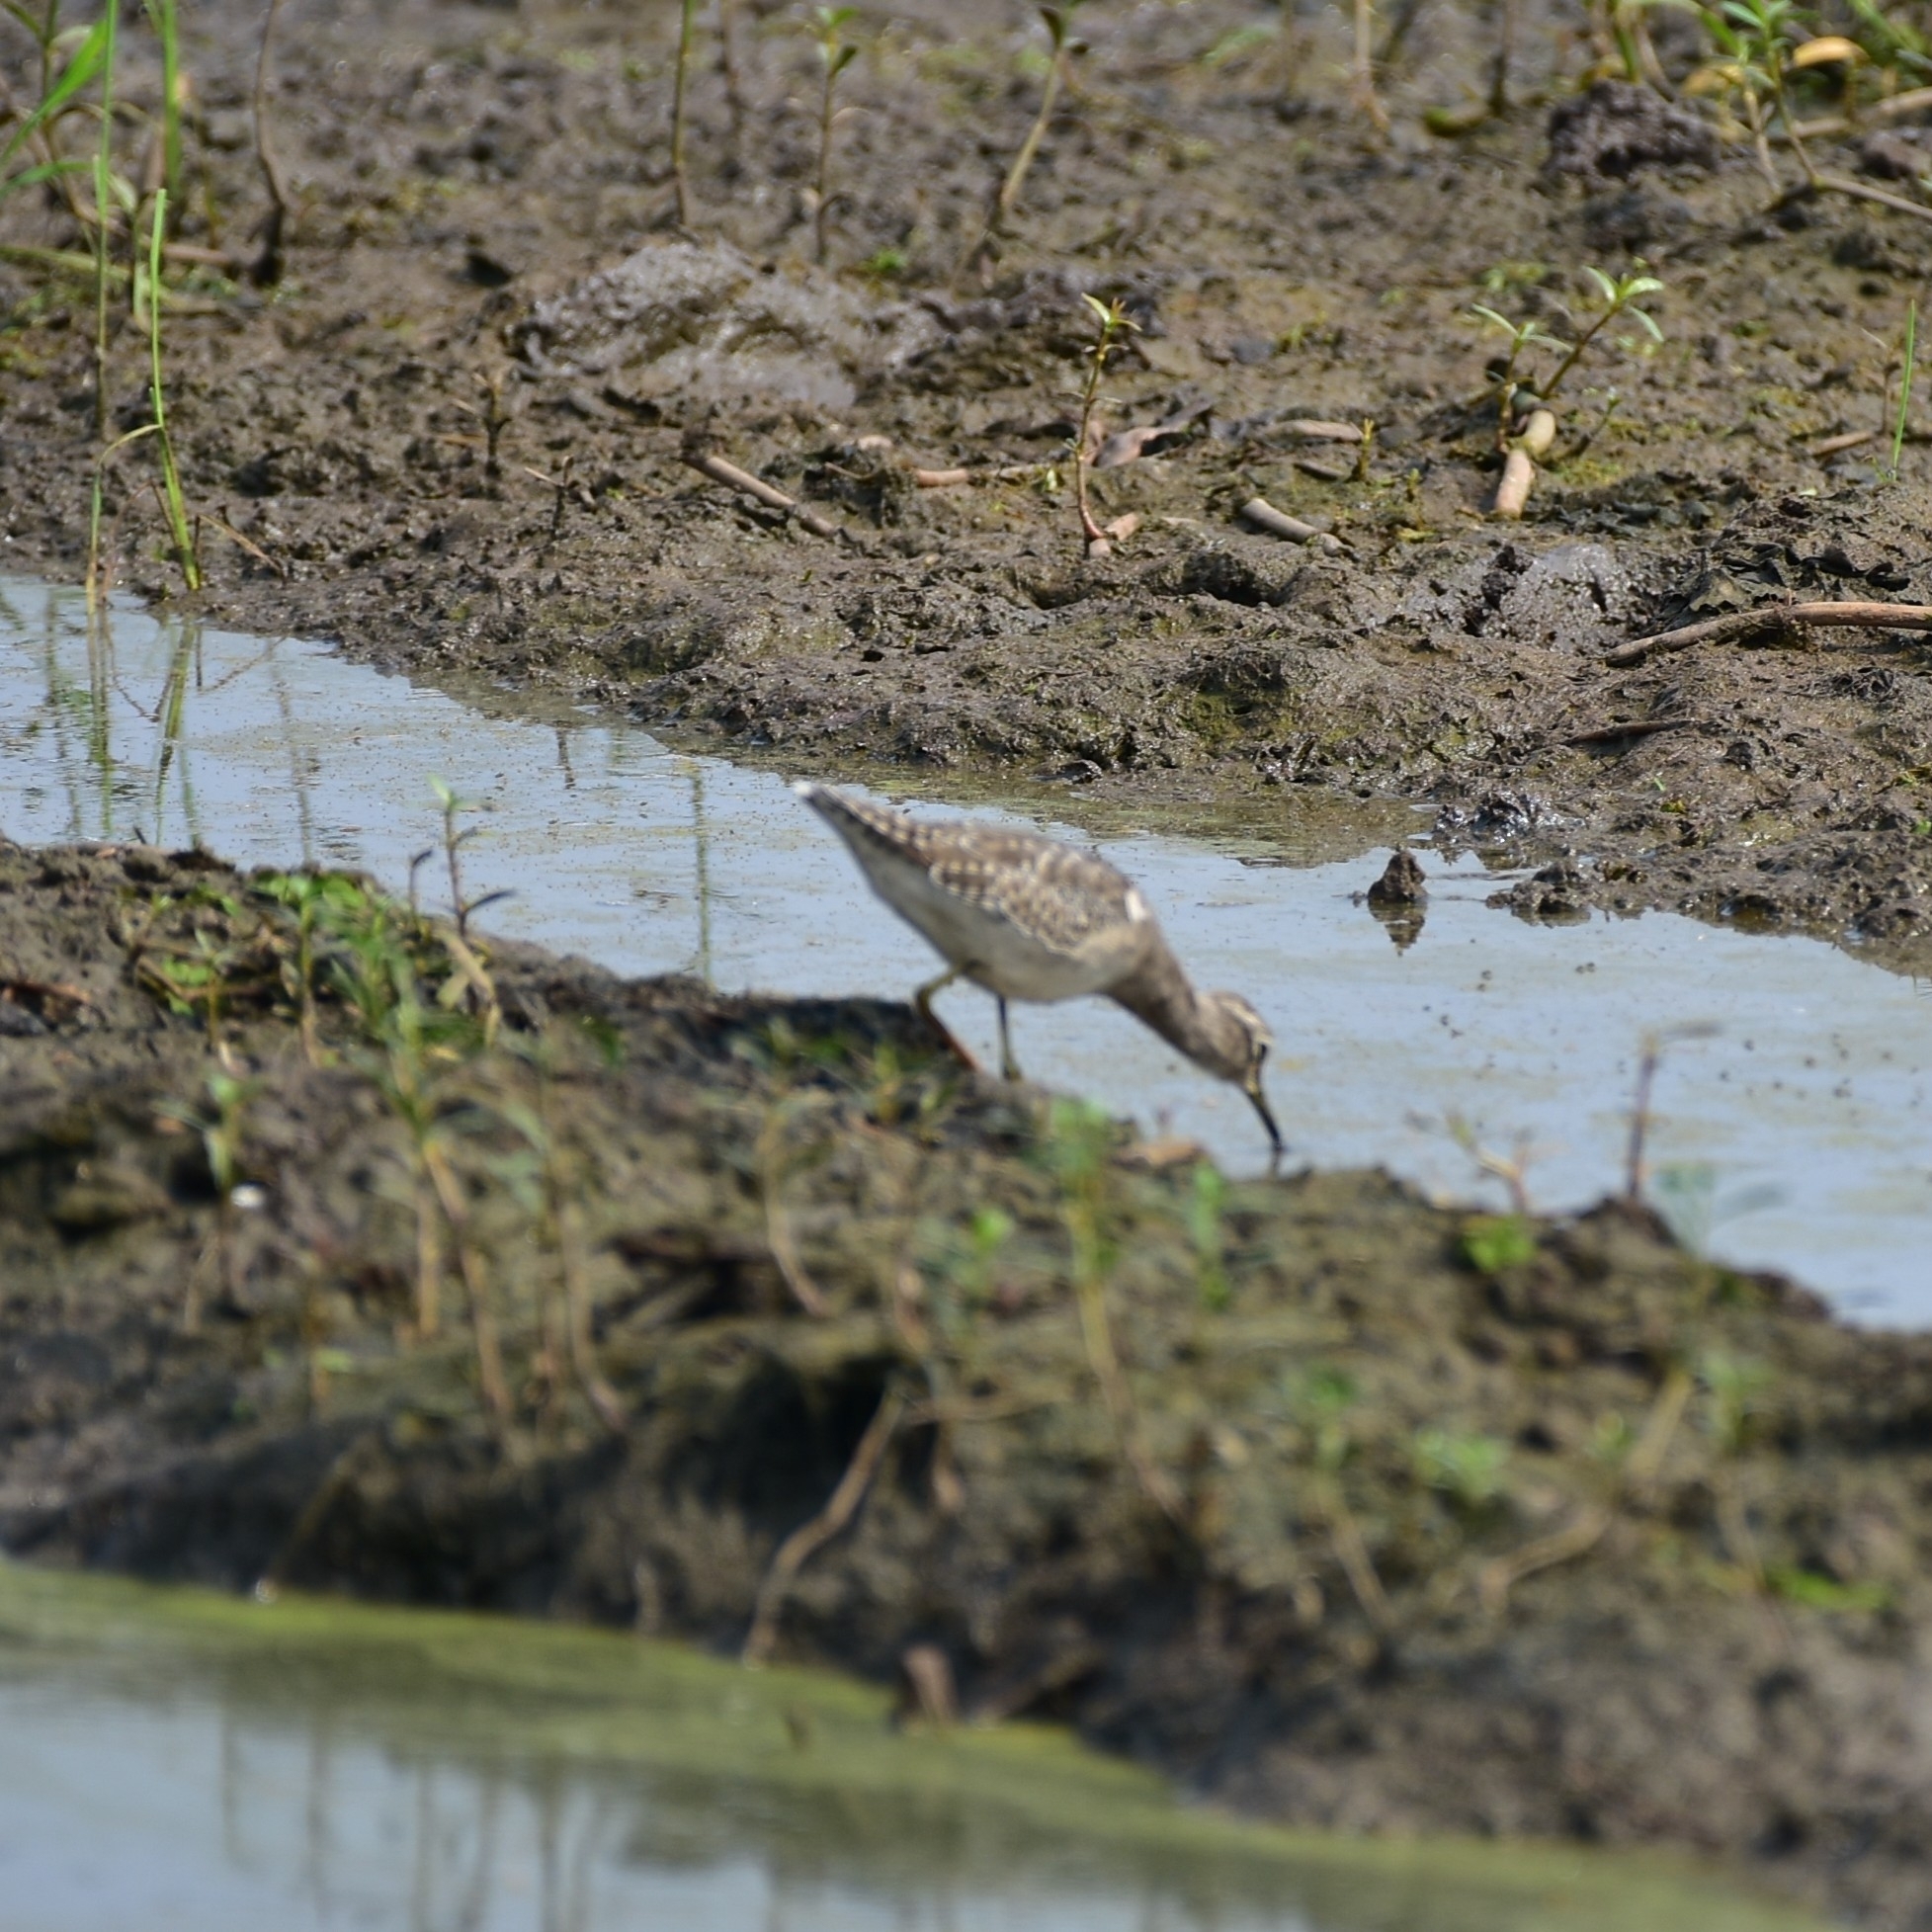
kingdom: Animalia
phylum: Chordata
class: Aves
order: Charadriiformes
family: Scolopacidae
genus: Tringa
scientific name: Tringa glareola
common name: Wood sandpiper
